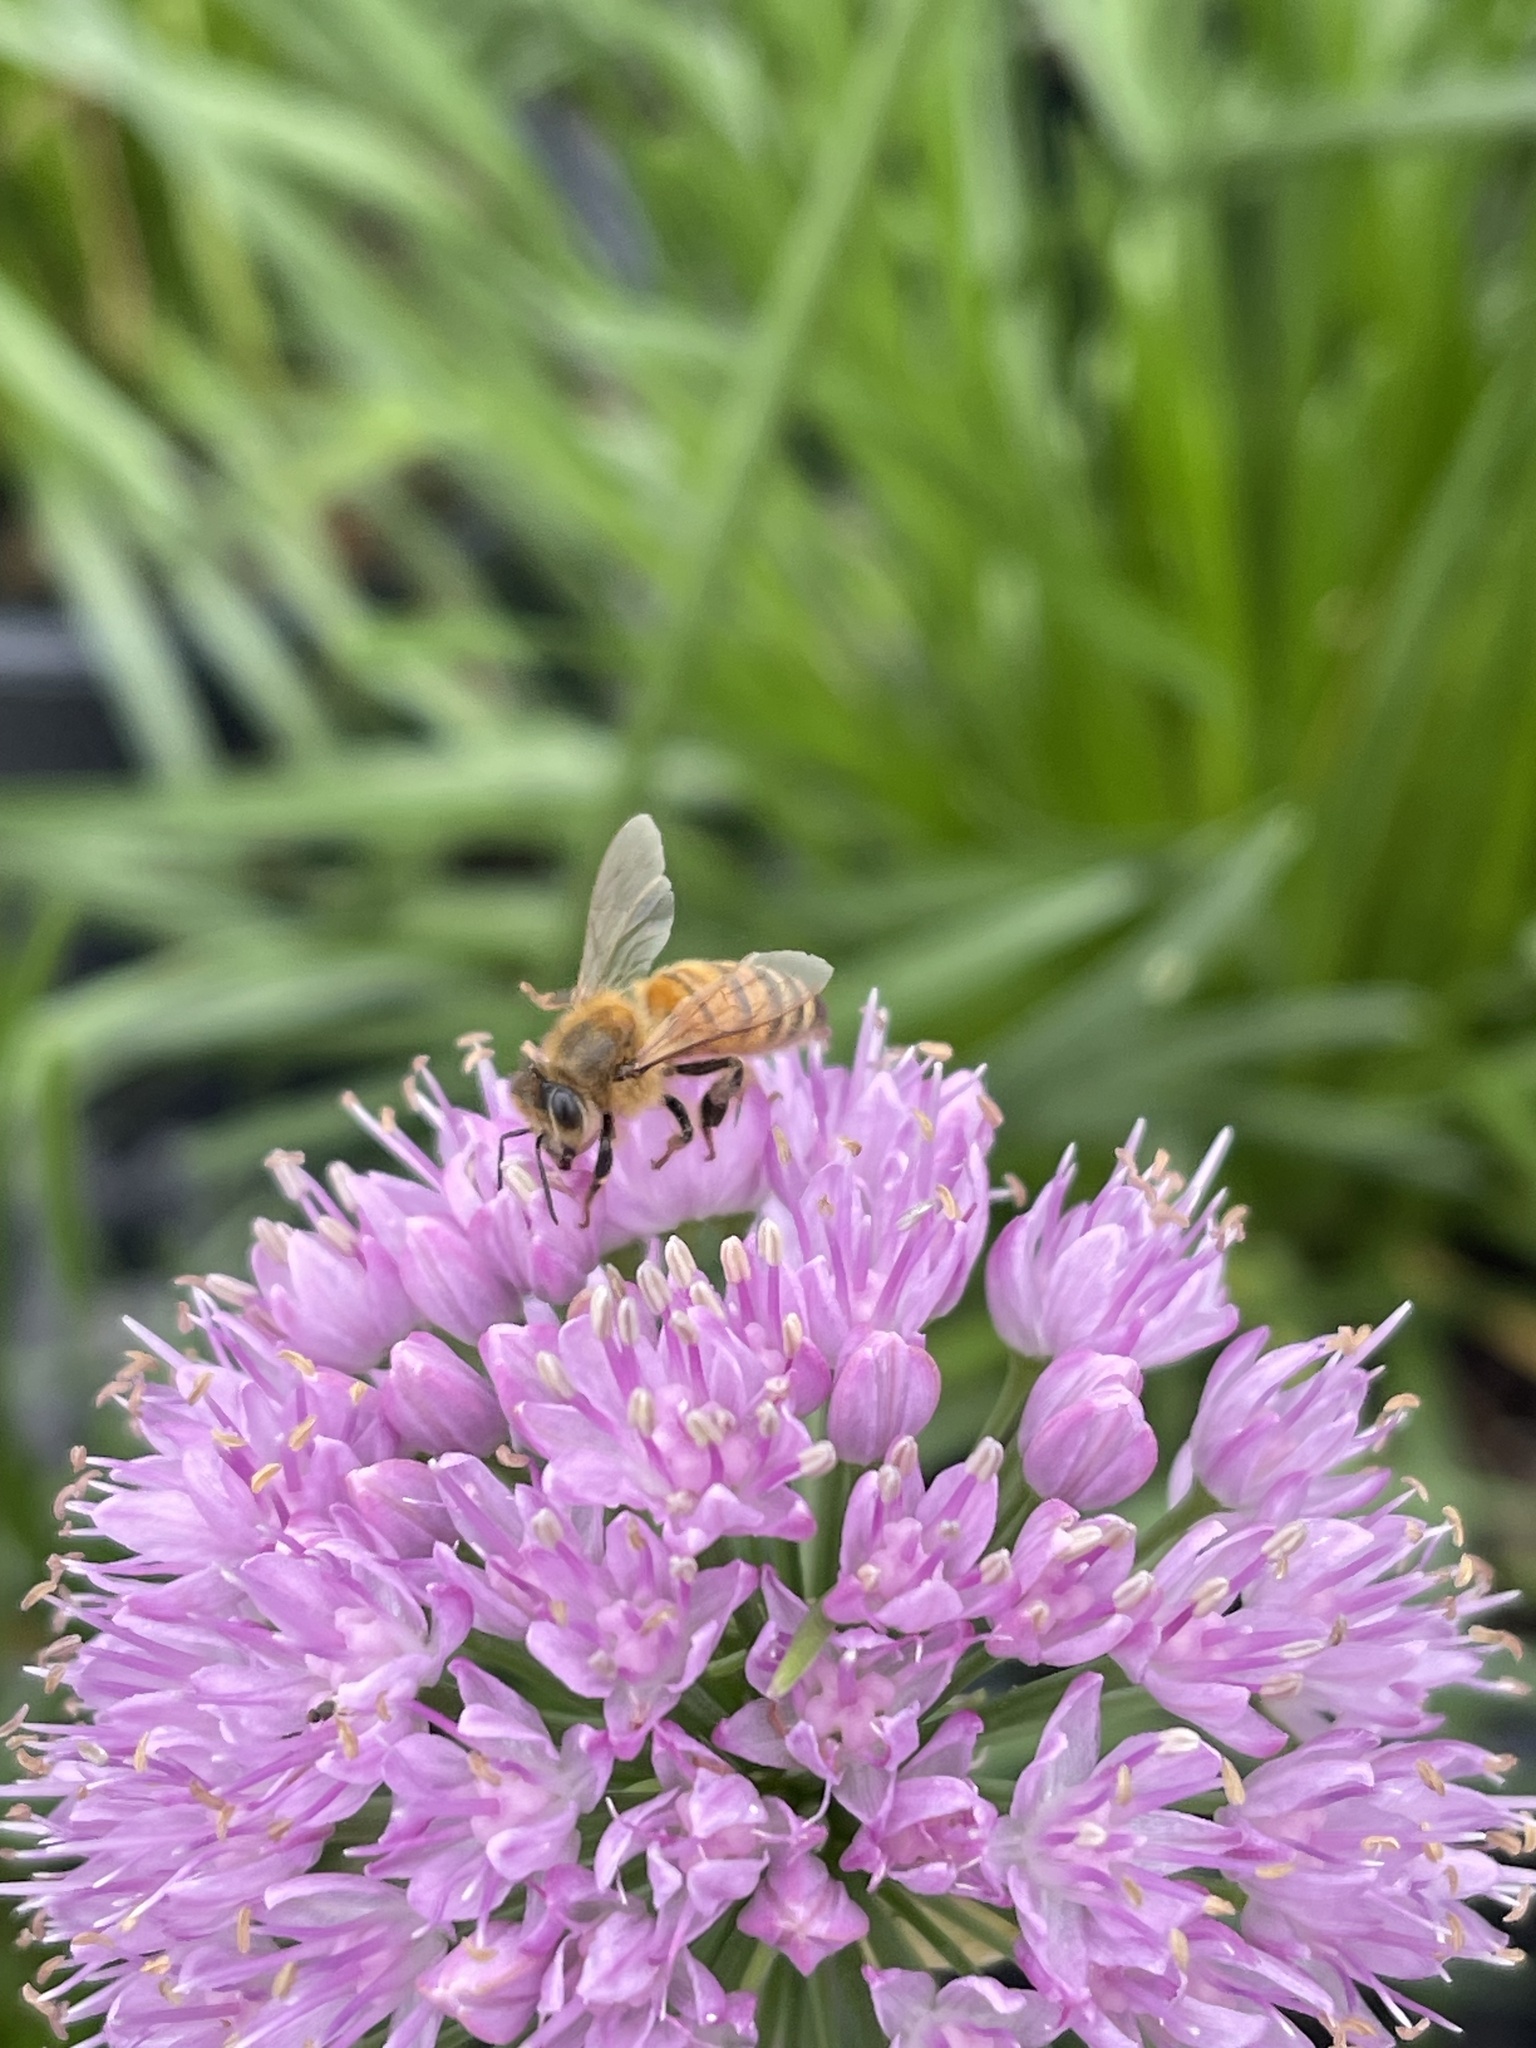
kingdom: Animalia
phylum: Arthropoda
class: Insecta
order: Hymenoptera
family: Apidae
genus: Apis
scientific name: Apis mellifera
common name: Honey bee
